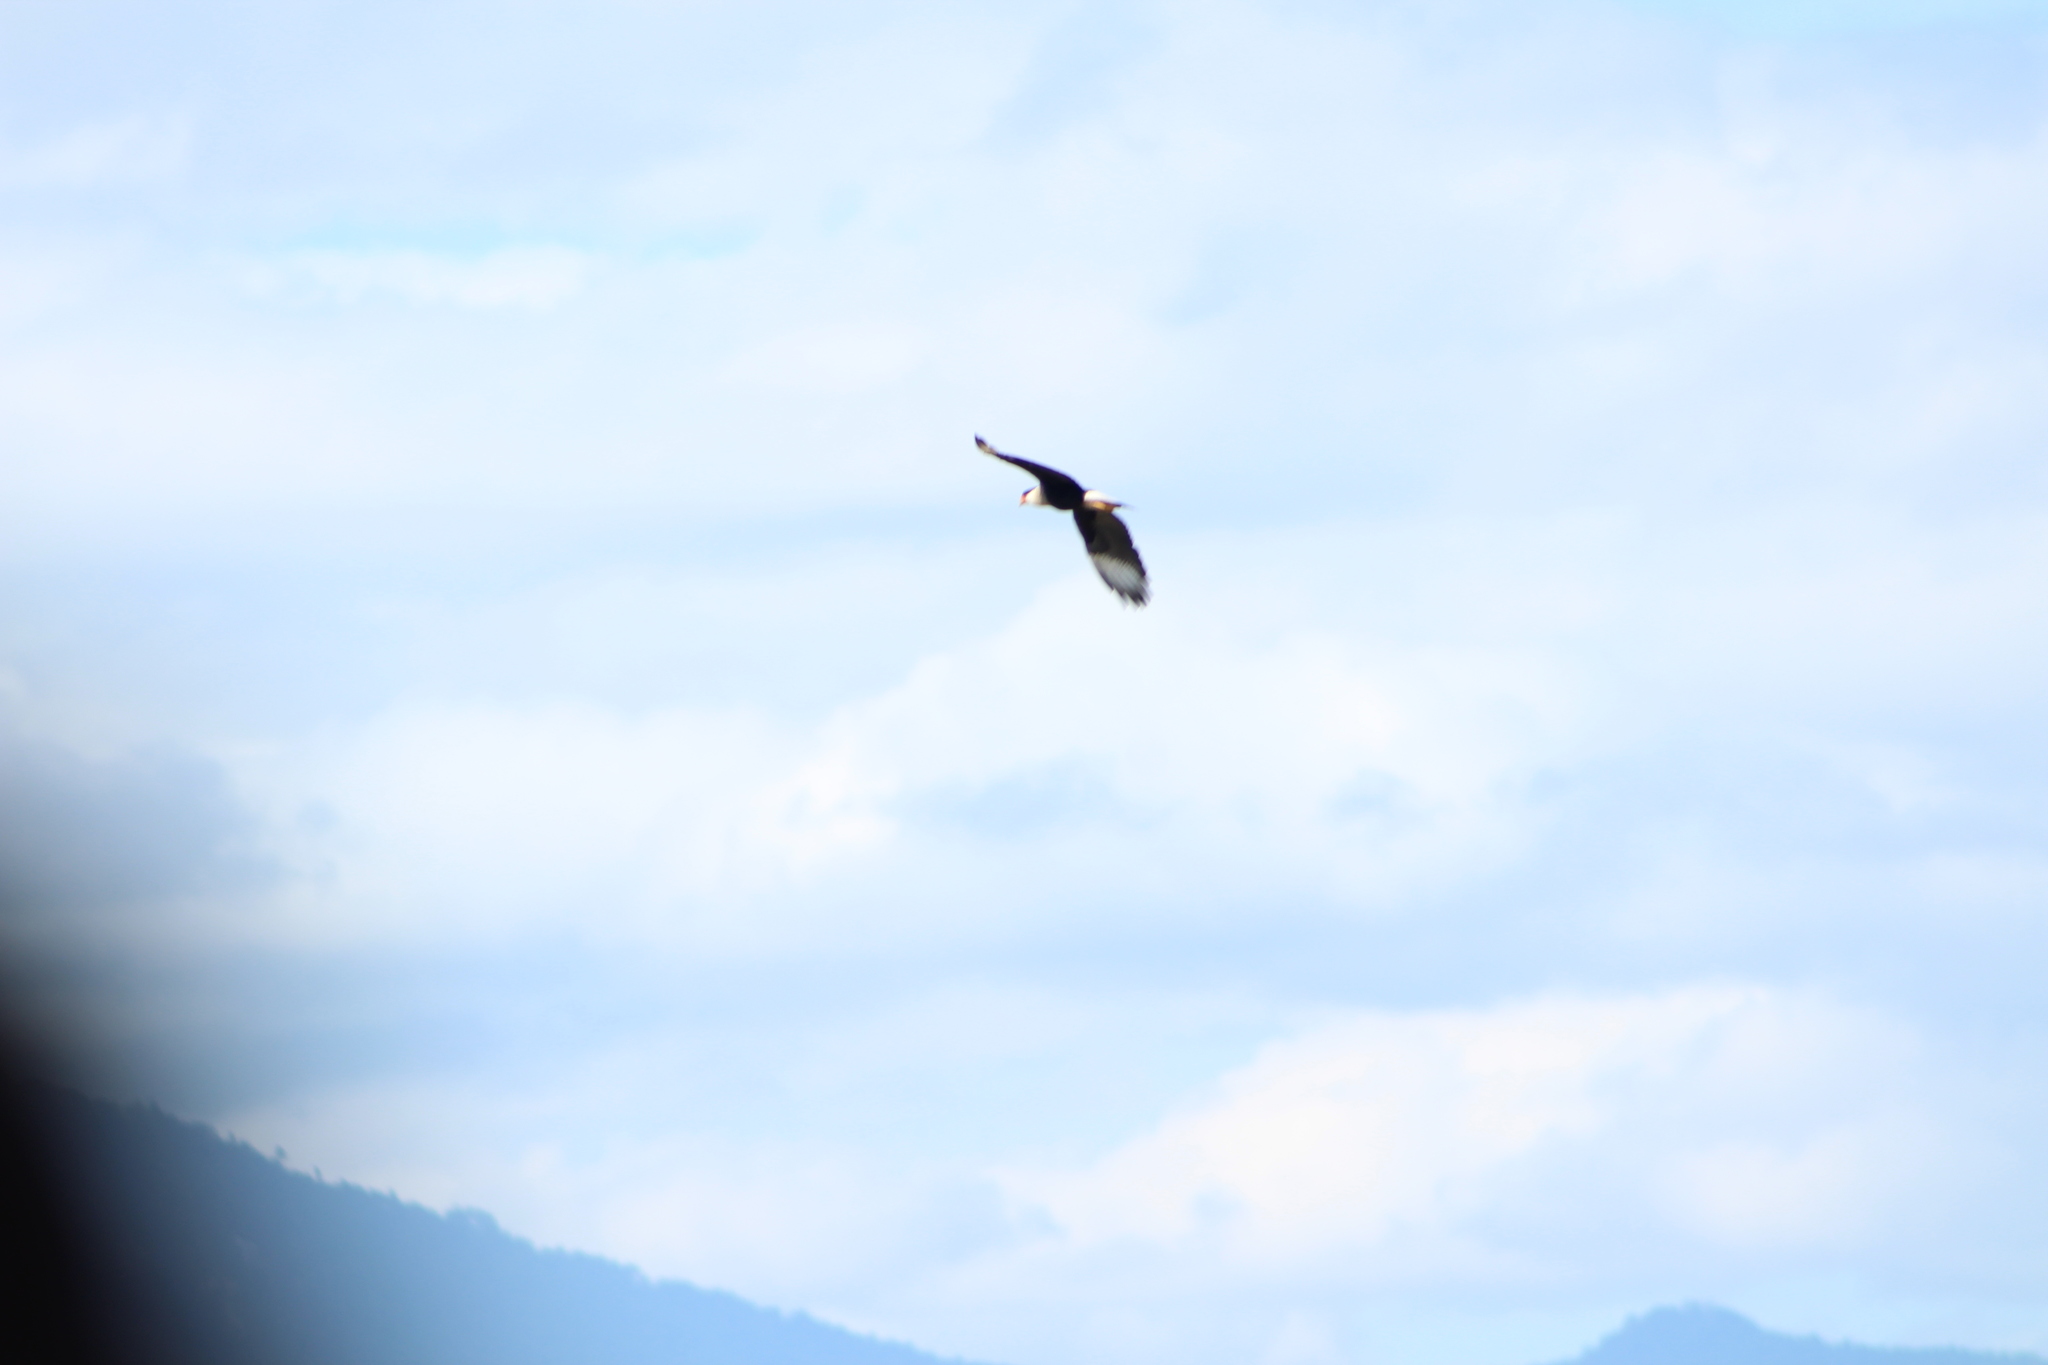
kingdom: Animalia
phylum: Chordata
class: Aves
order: Falconiformes
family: Falconidae
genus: Caracara
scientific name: Caracara plancus
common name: Southern caracara
